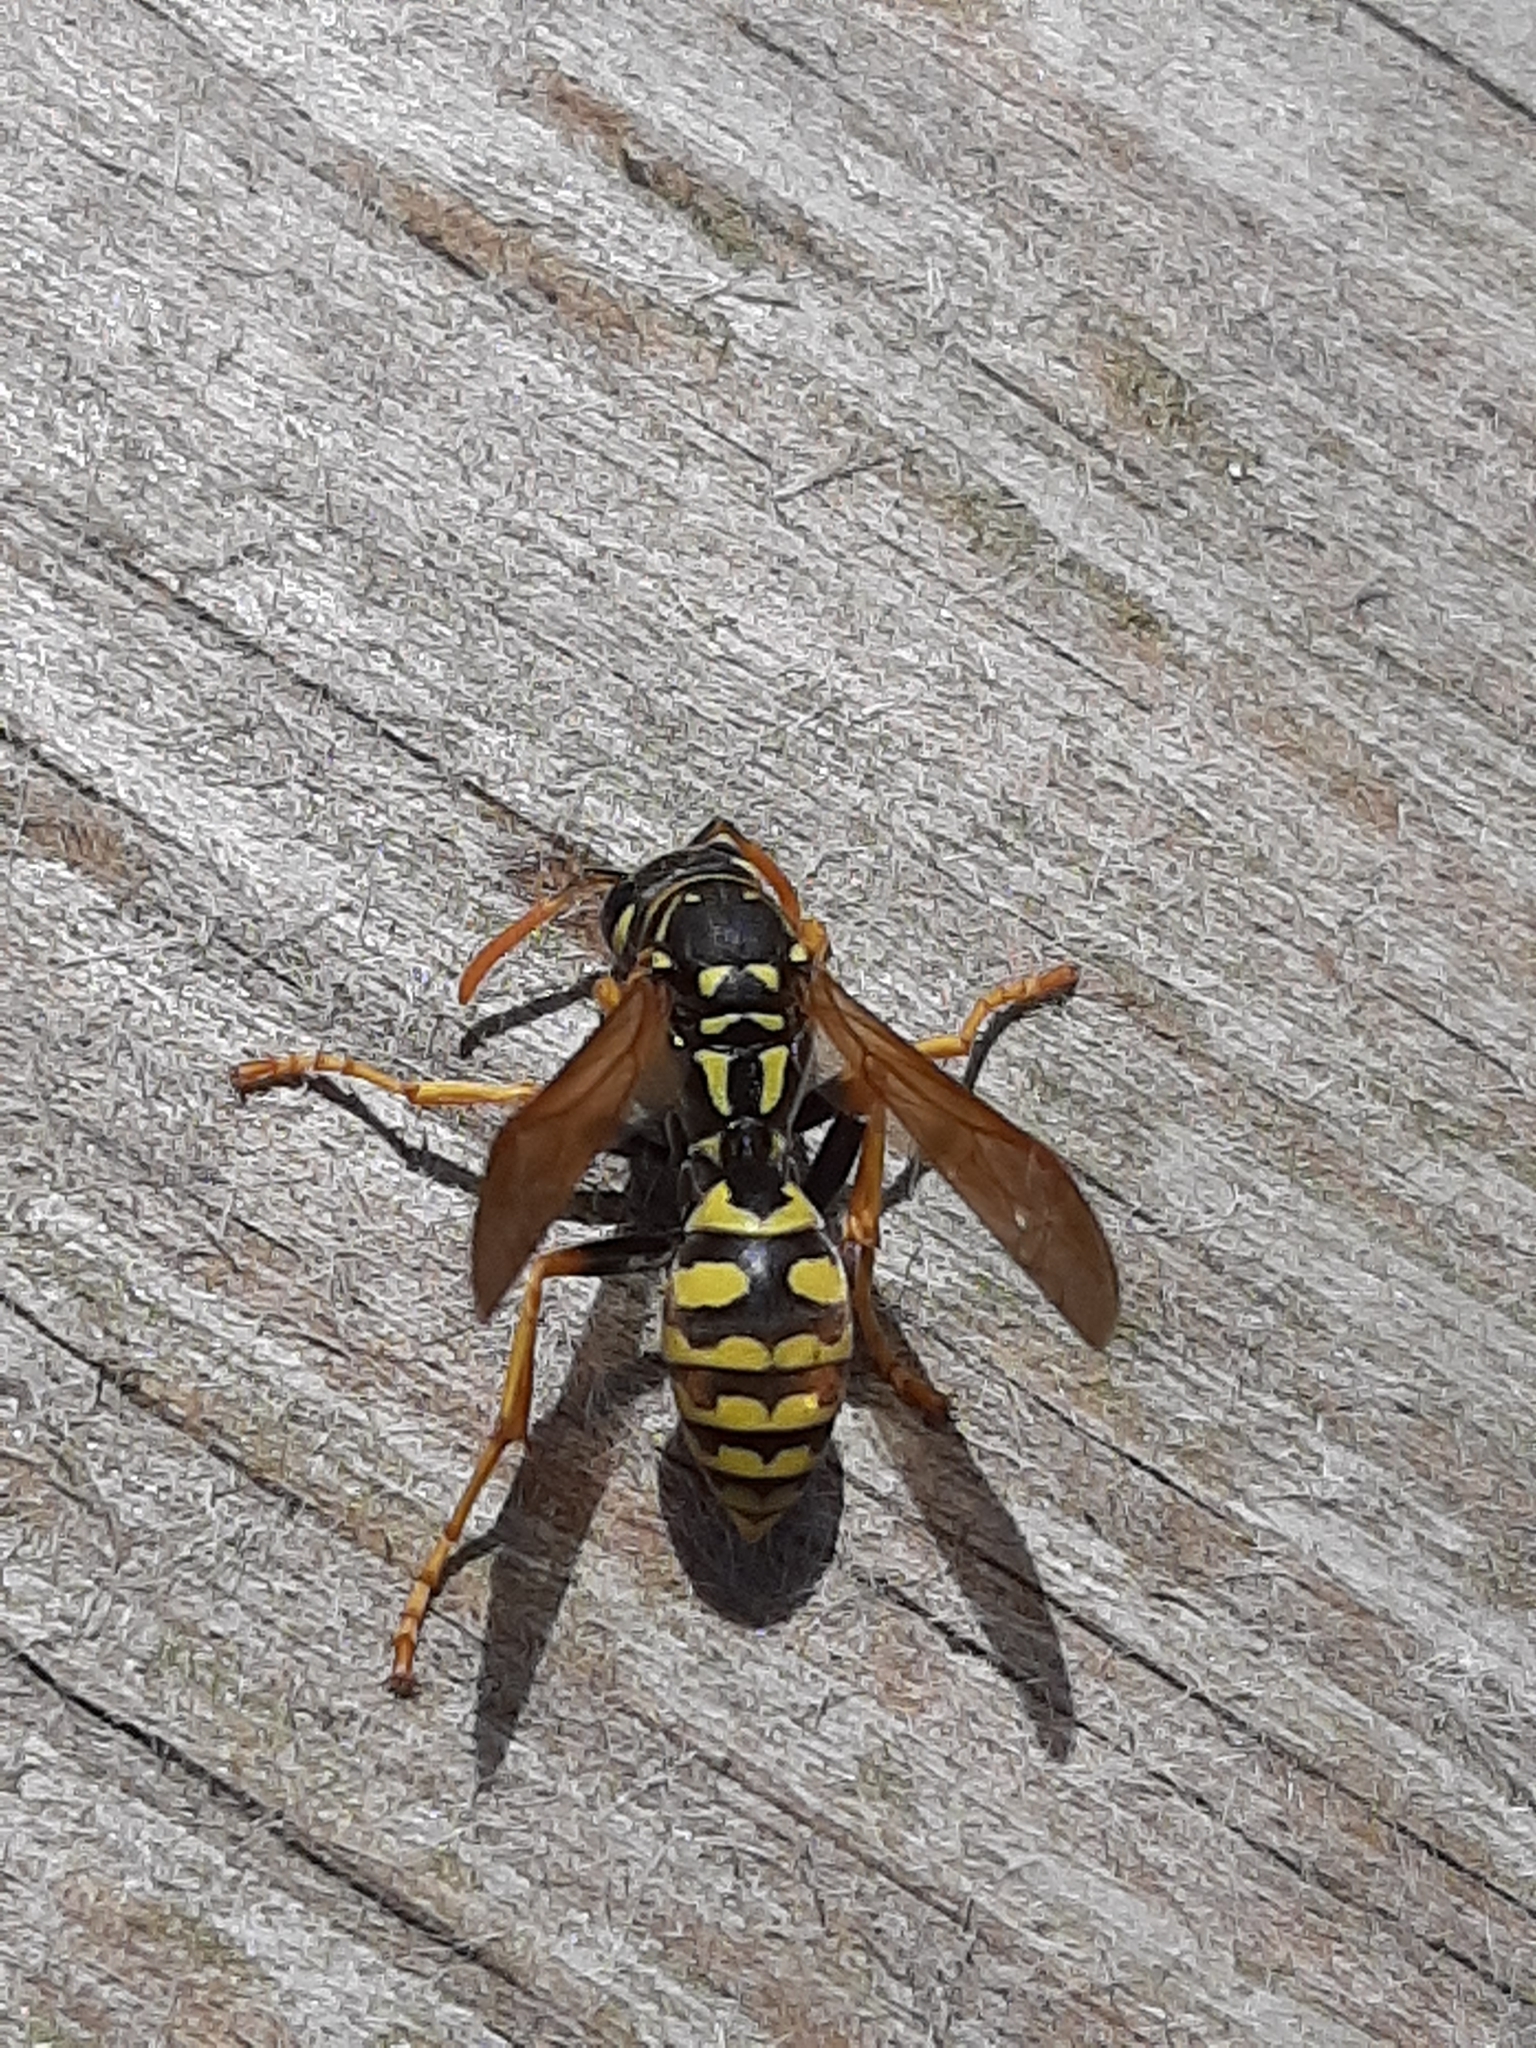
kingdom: Animalia
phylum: Arthropoda
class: Insecta
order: Hymenoptera
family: Eumenidae
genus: Polistes
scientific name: Polistes dominula
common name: Paper wasp
